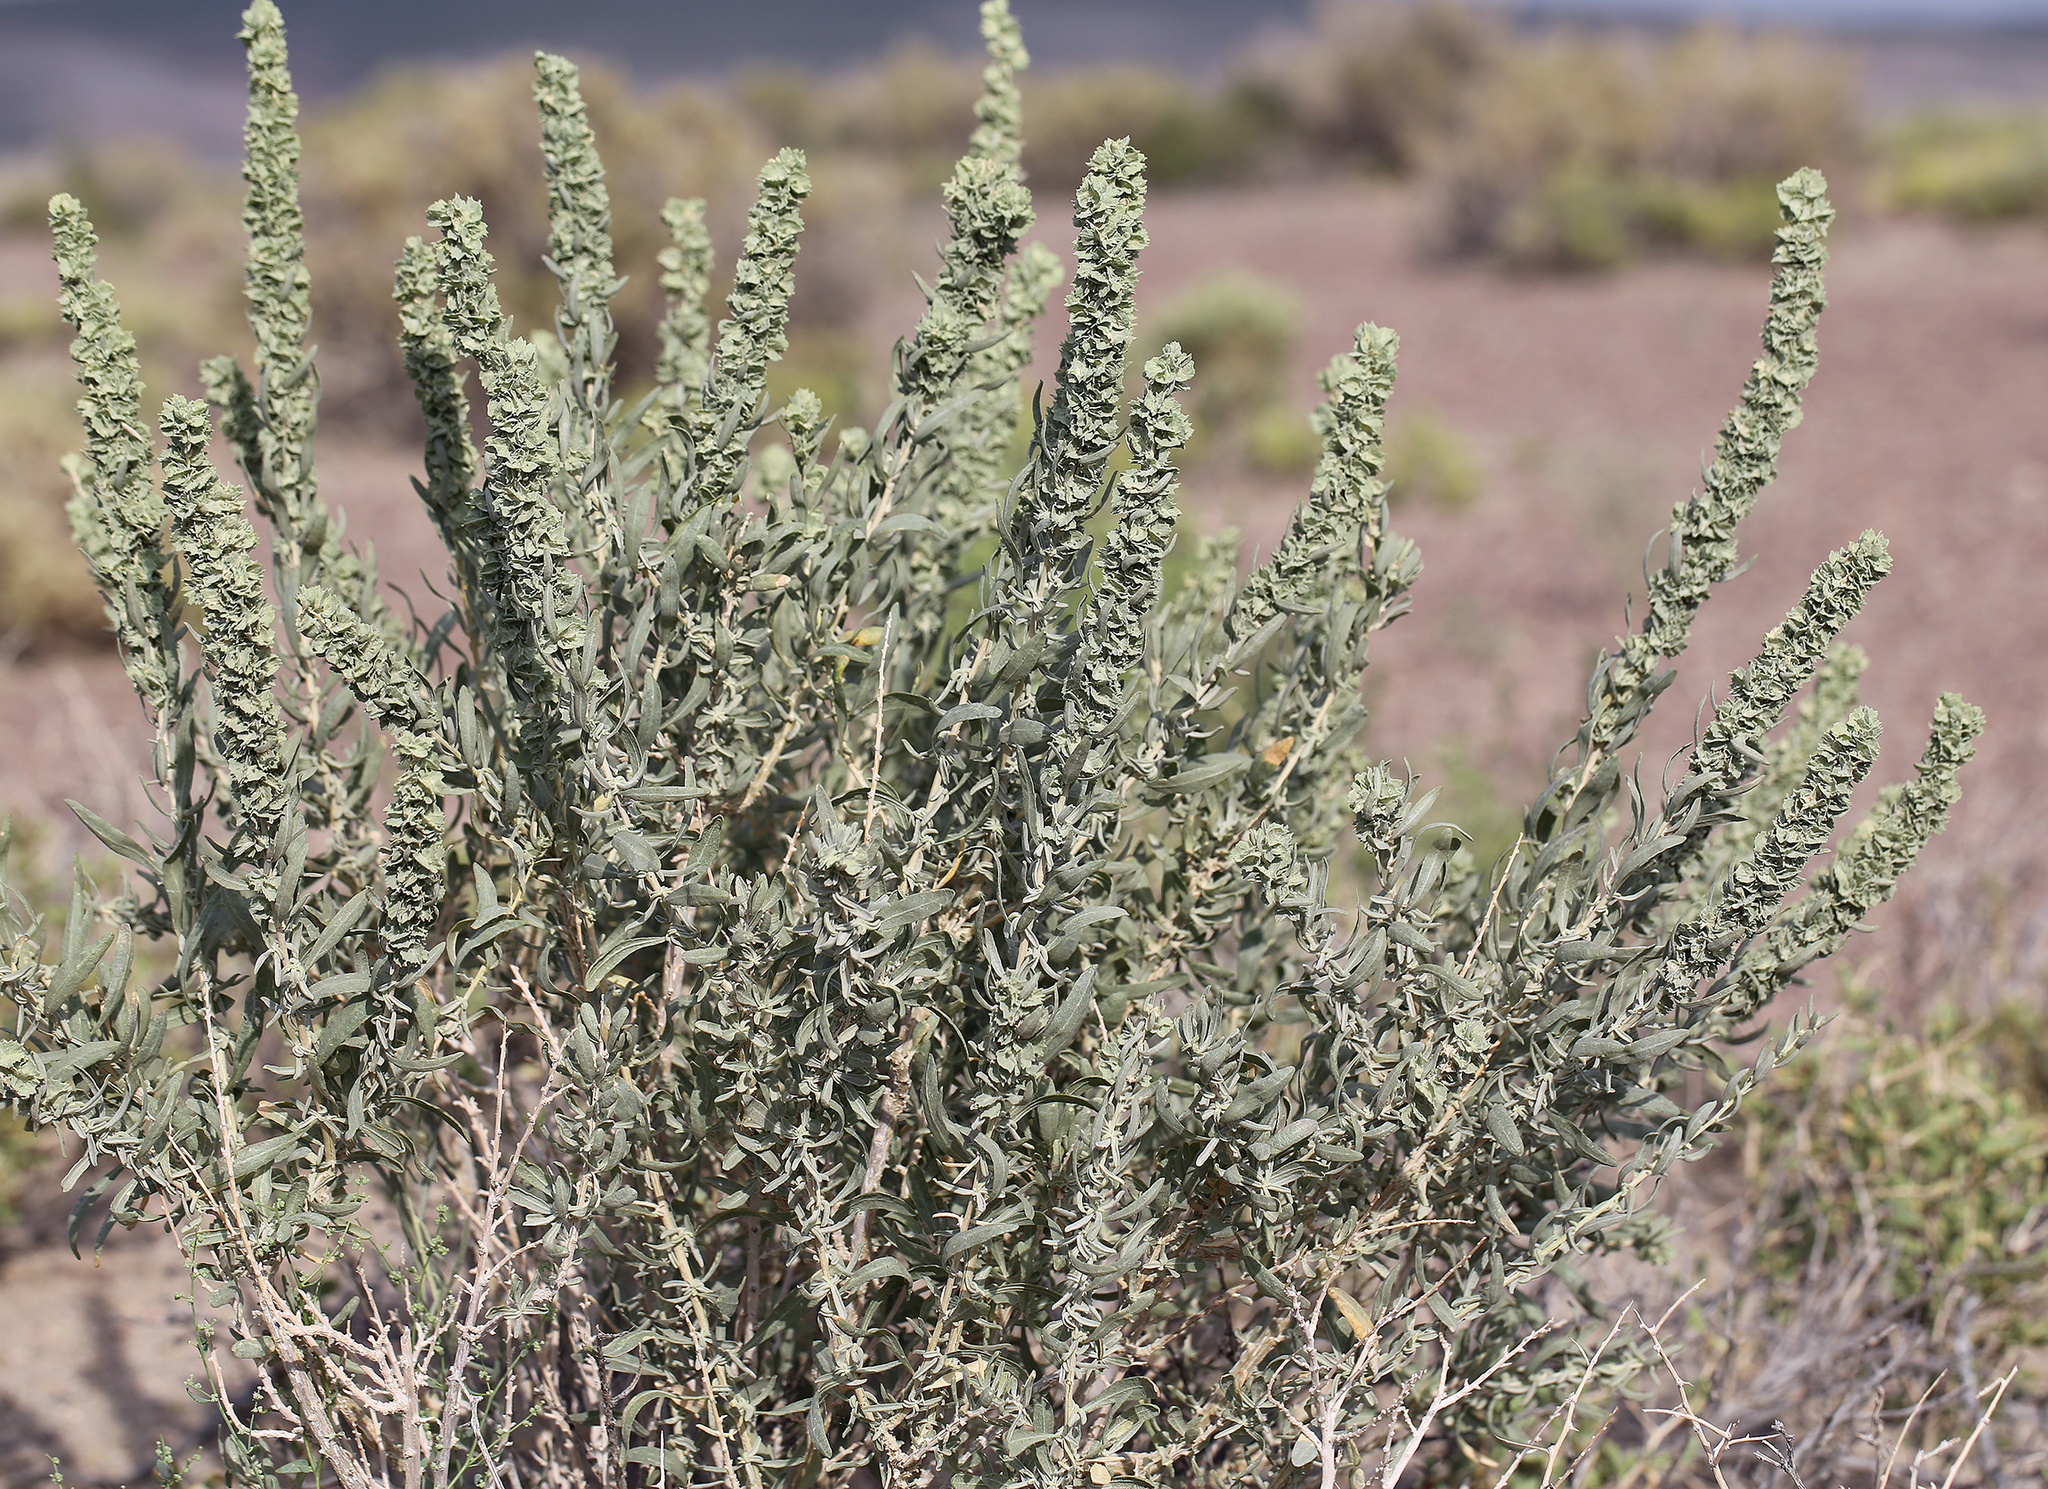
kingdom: Plantae
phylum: Tracheophyta
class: Magnoliopsida
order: Caryophyllales
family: Amaranthaceae
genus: Atriplex
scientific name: Atriplex canescens
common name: Four-wing saltbush
